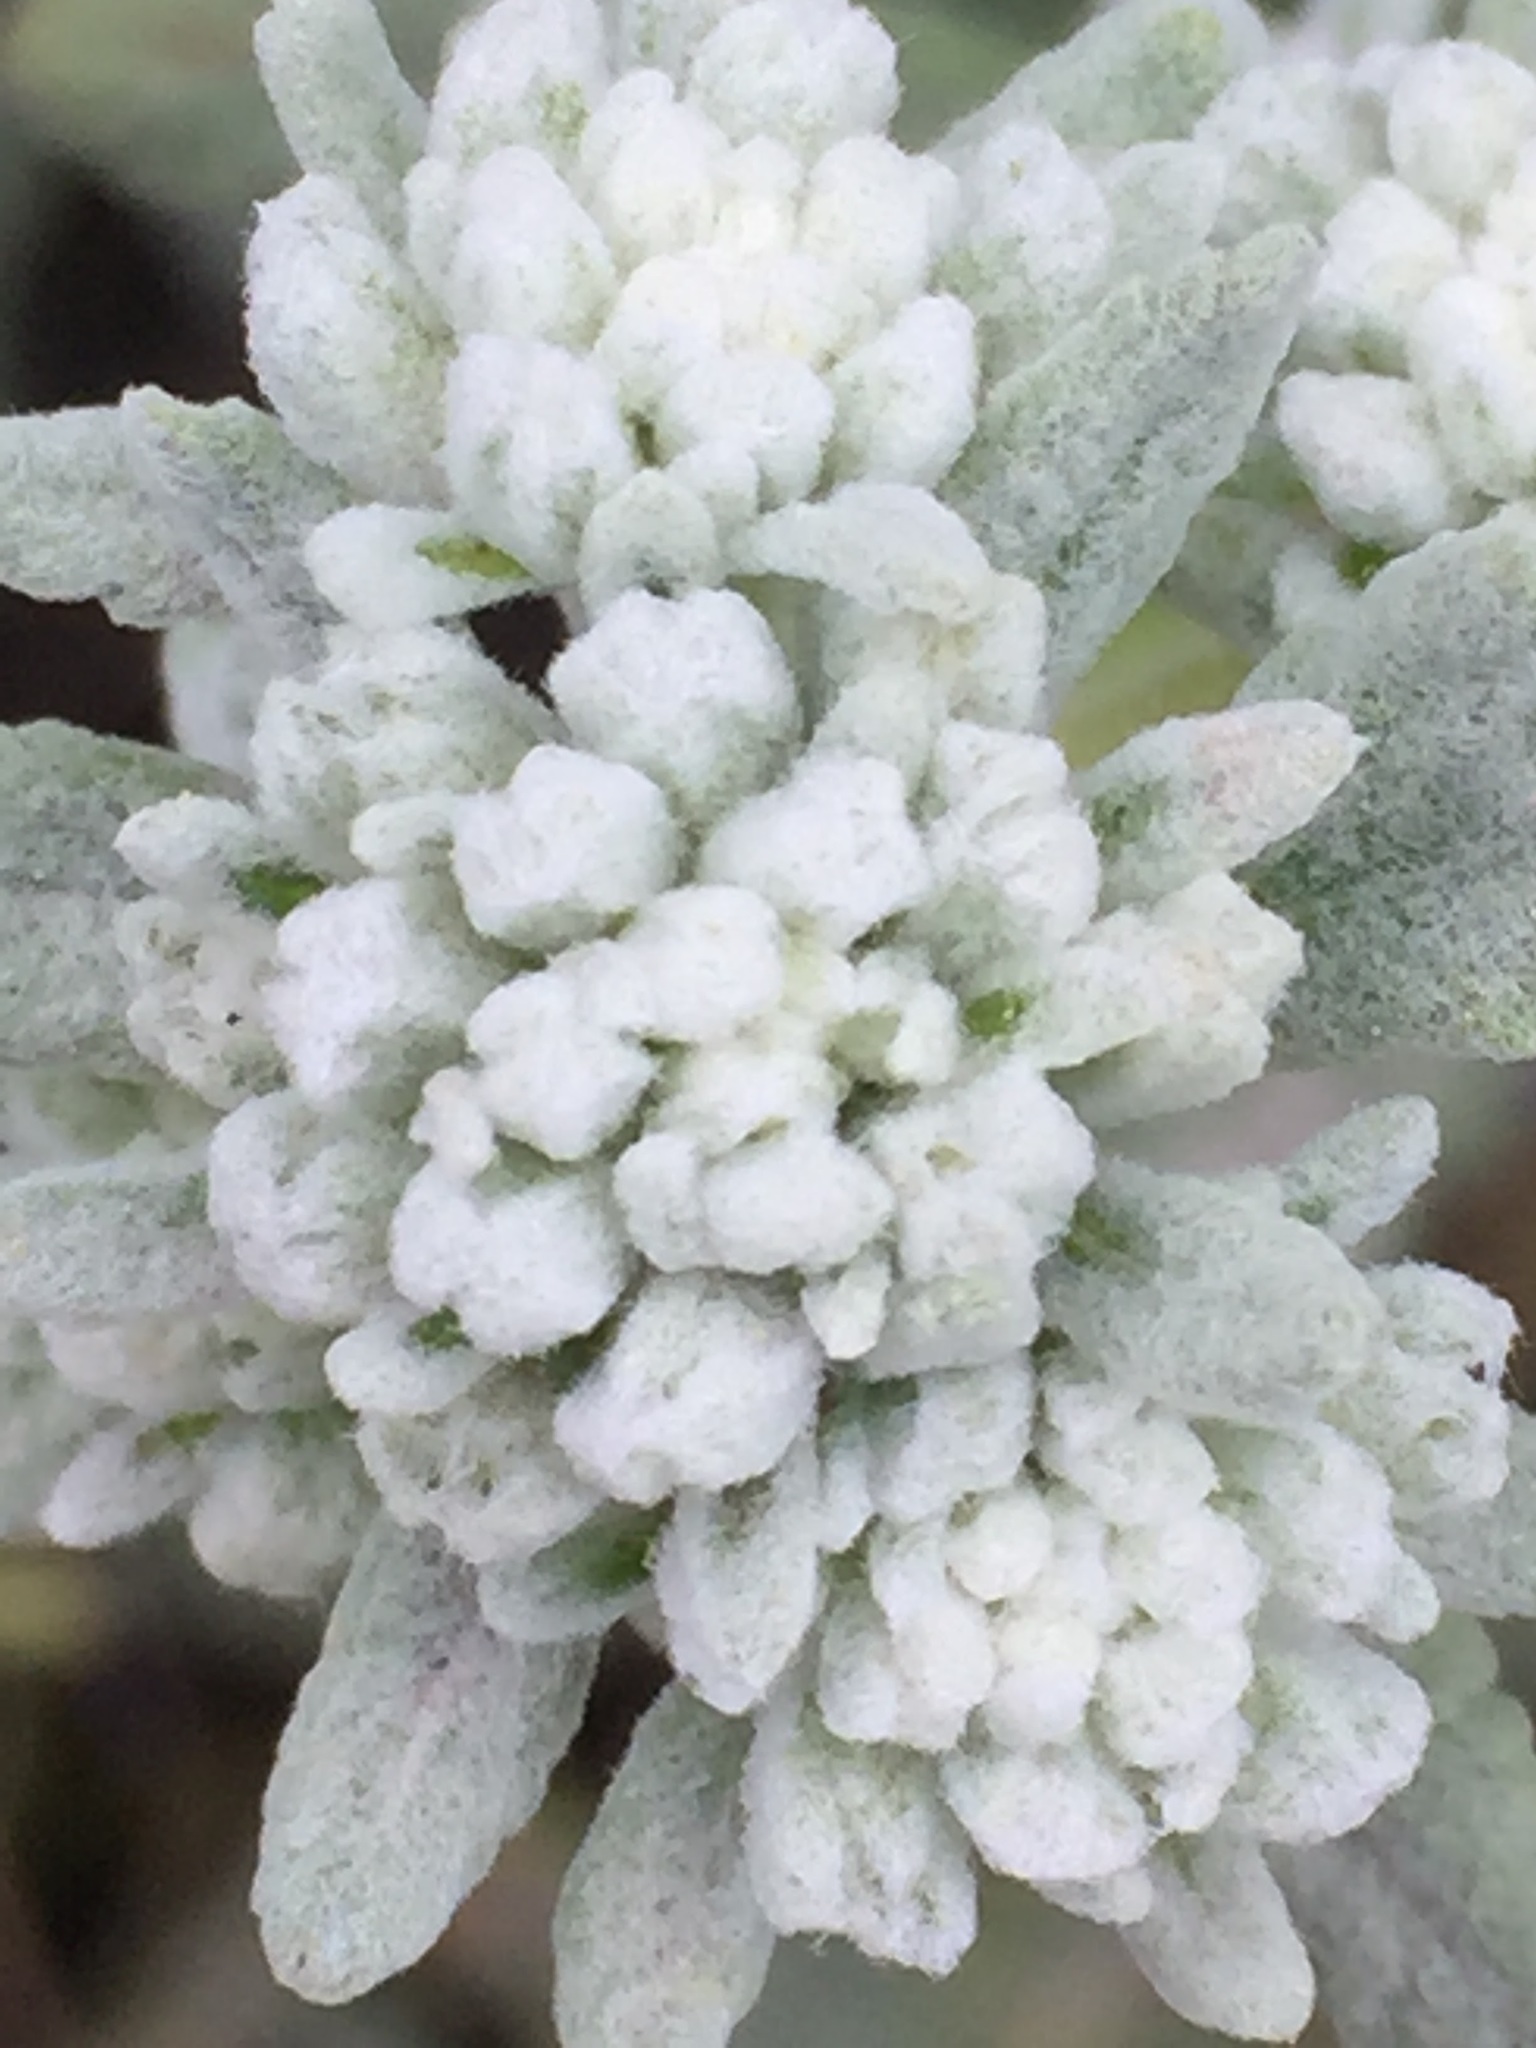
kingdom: Plantae
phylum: Tracheophyta
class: Magnoliopsida
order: Lamiales
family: Lamiaceae
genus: Teucrium
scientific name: Teucrium polium
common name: Poley
